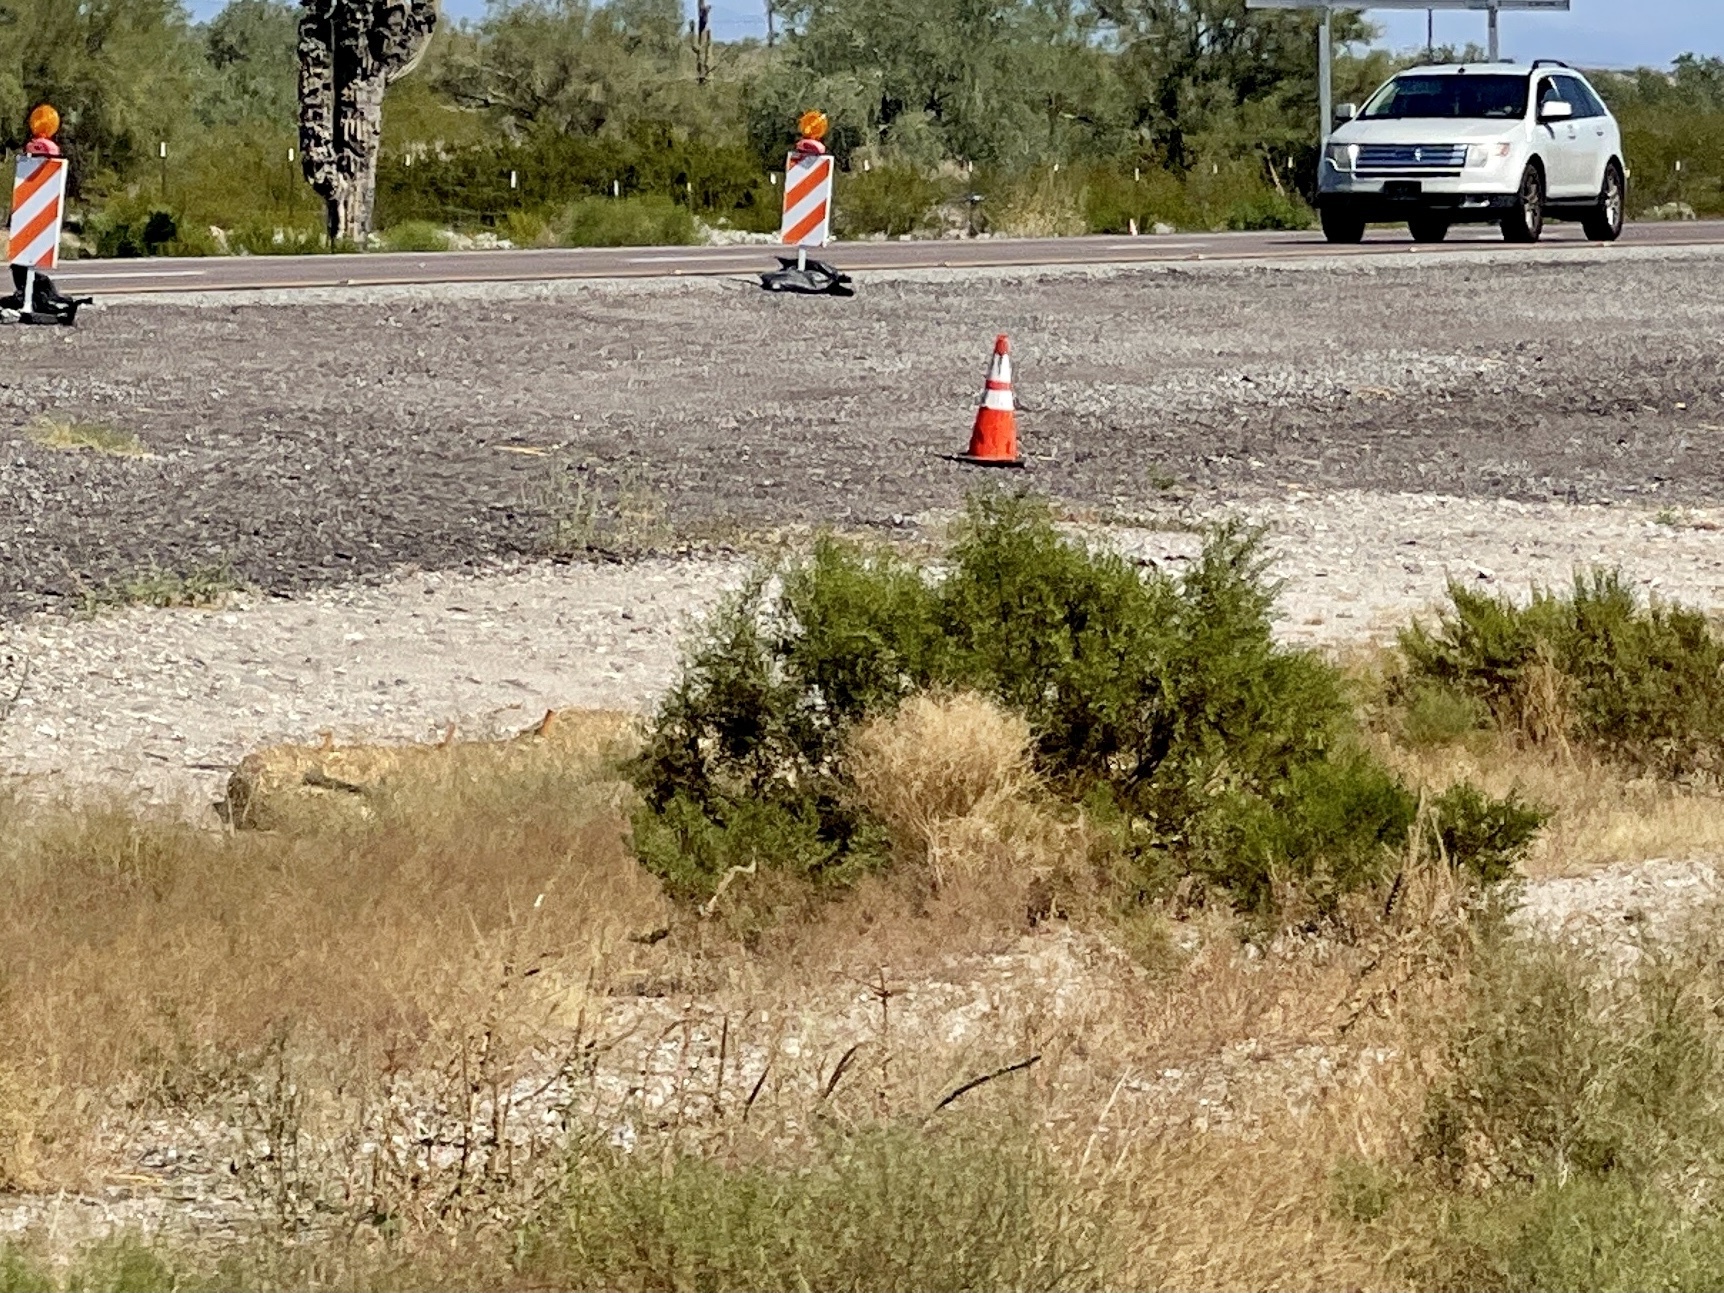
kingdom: Plantae
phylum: Tracheophyta
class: Magnoliopsida
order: Zygophyllales
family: Zygophyllaceae
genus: Larrea
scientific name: Larrea tridentata
